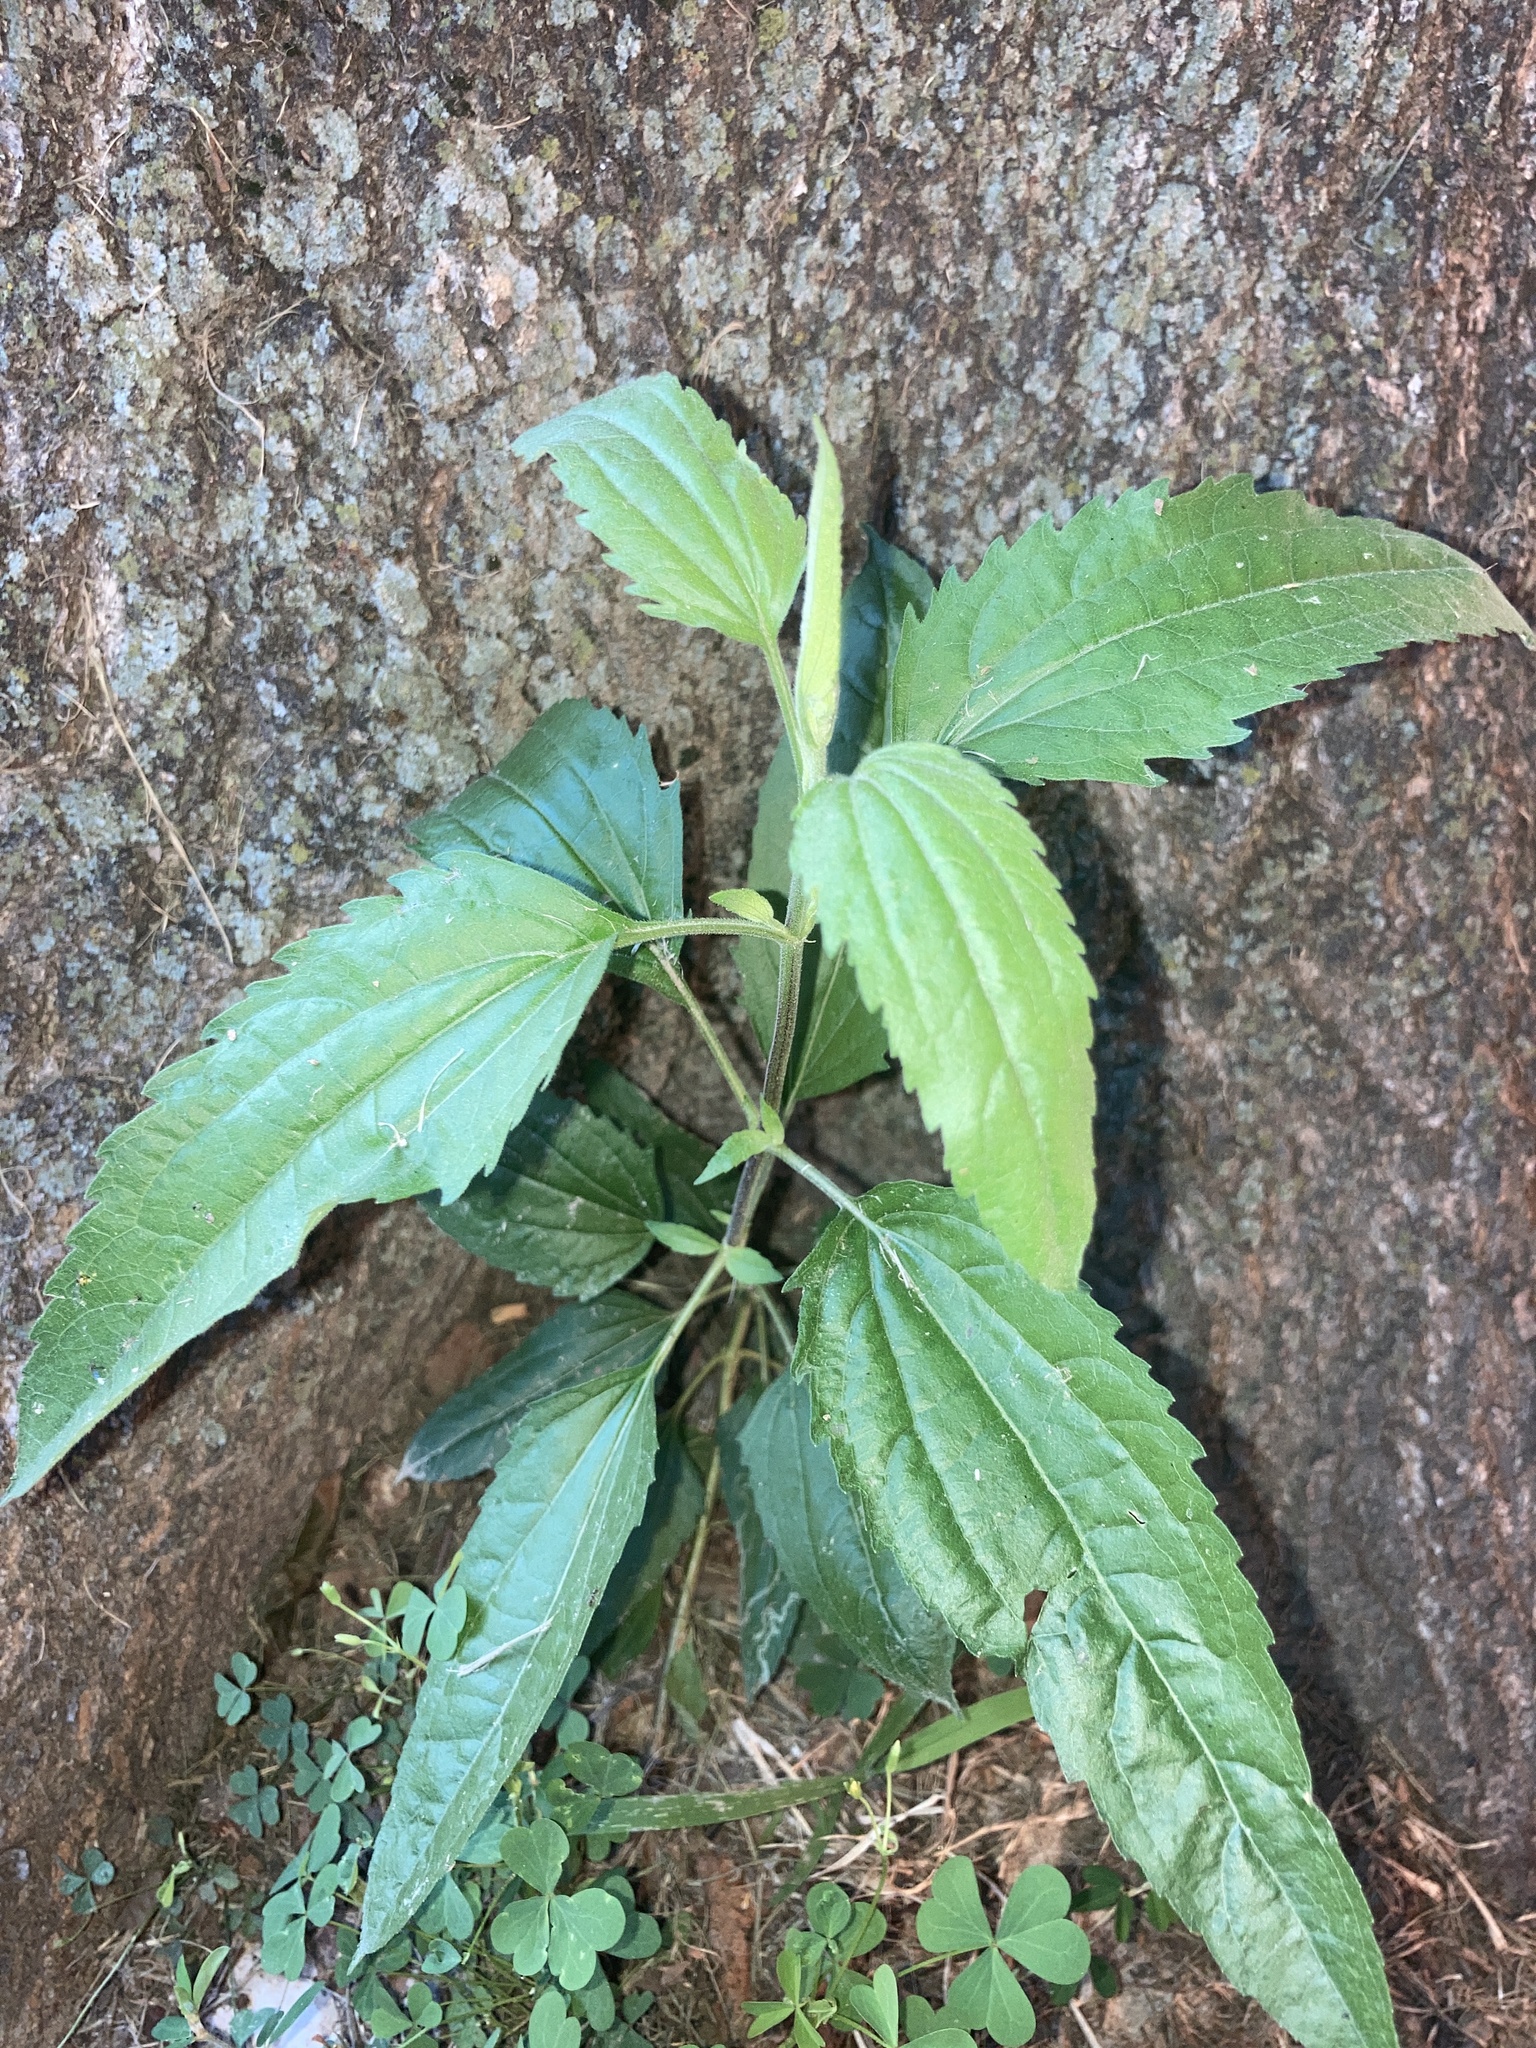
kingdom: Plantae
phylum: Tracheophyta
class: Magnoliopsida
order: Asterales
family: Asteraceae
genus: Eupatorium
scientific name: Eupatorium serotinum
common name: Late boneset
